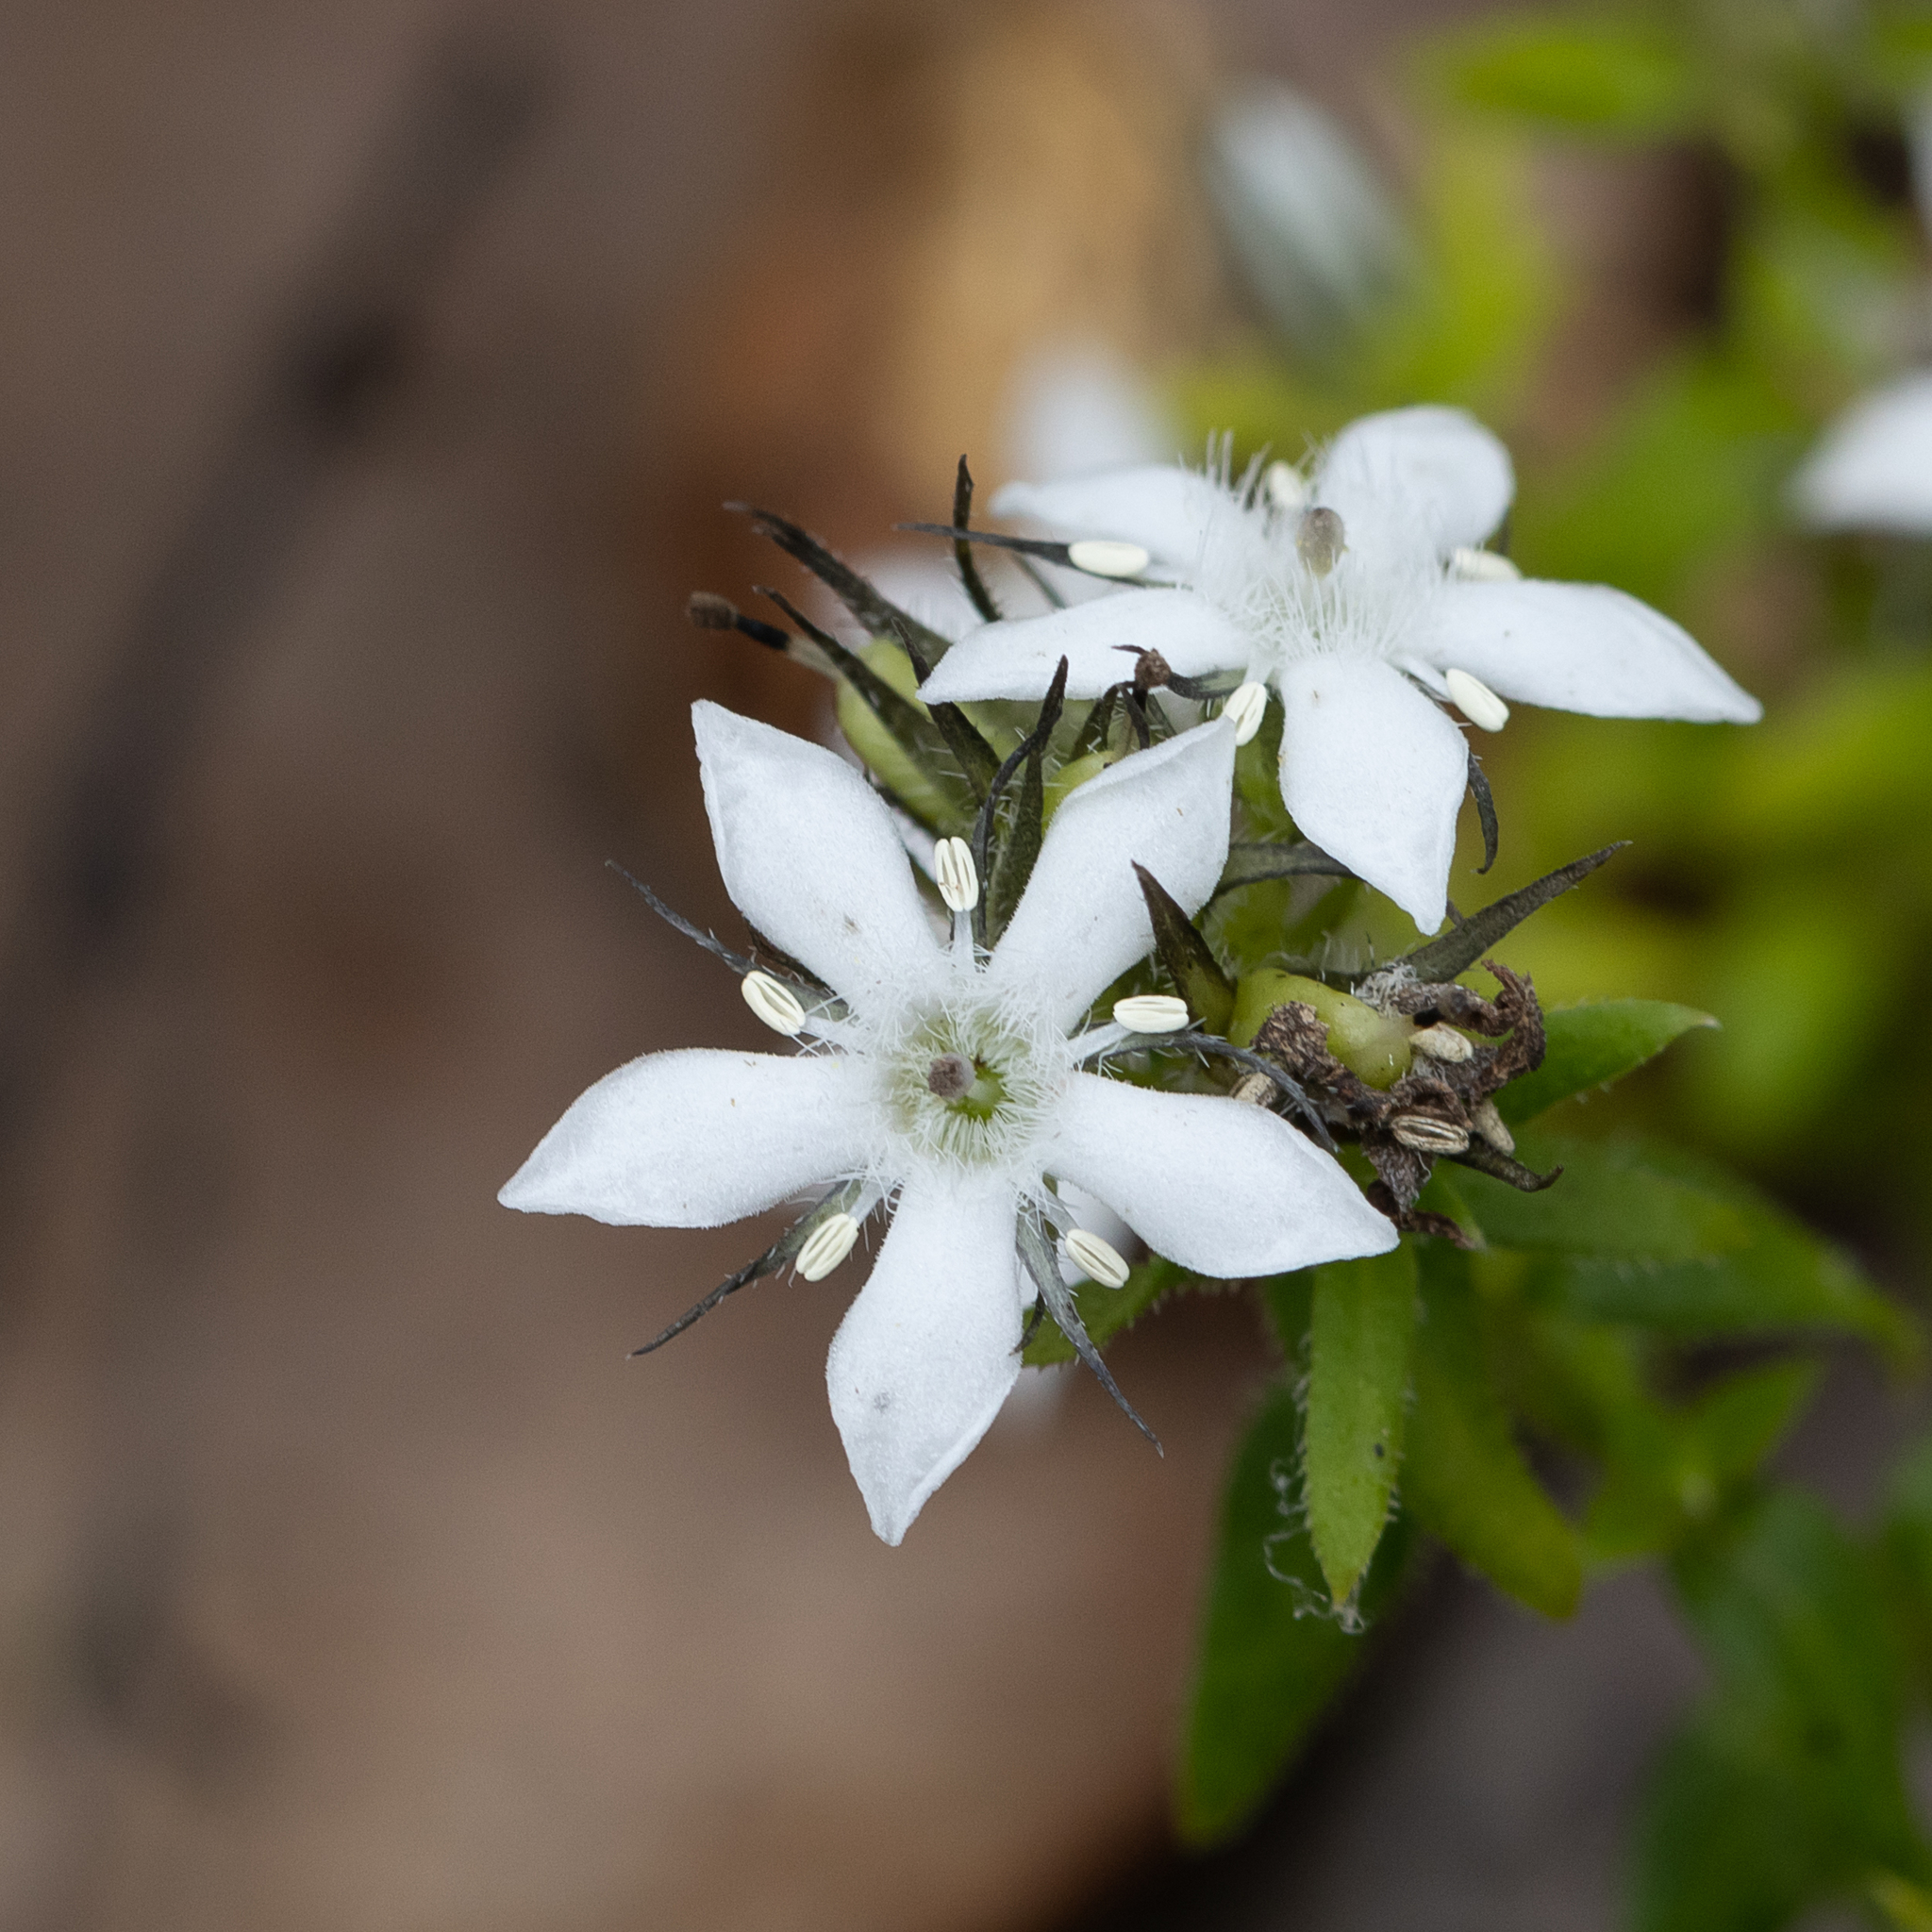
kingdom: Plantae
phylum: Tracheophyta
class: Magnoliopsida
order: Gentianales
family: Loganiaceae
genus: Orianthera
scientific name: Orianthera serpyllifolia
